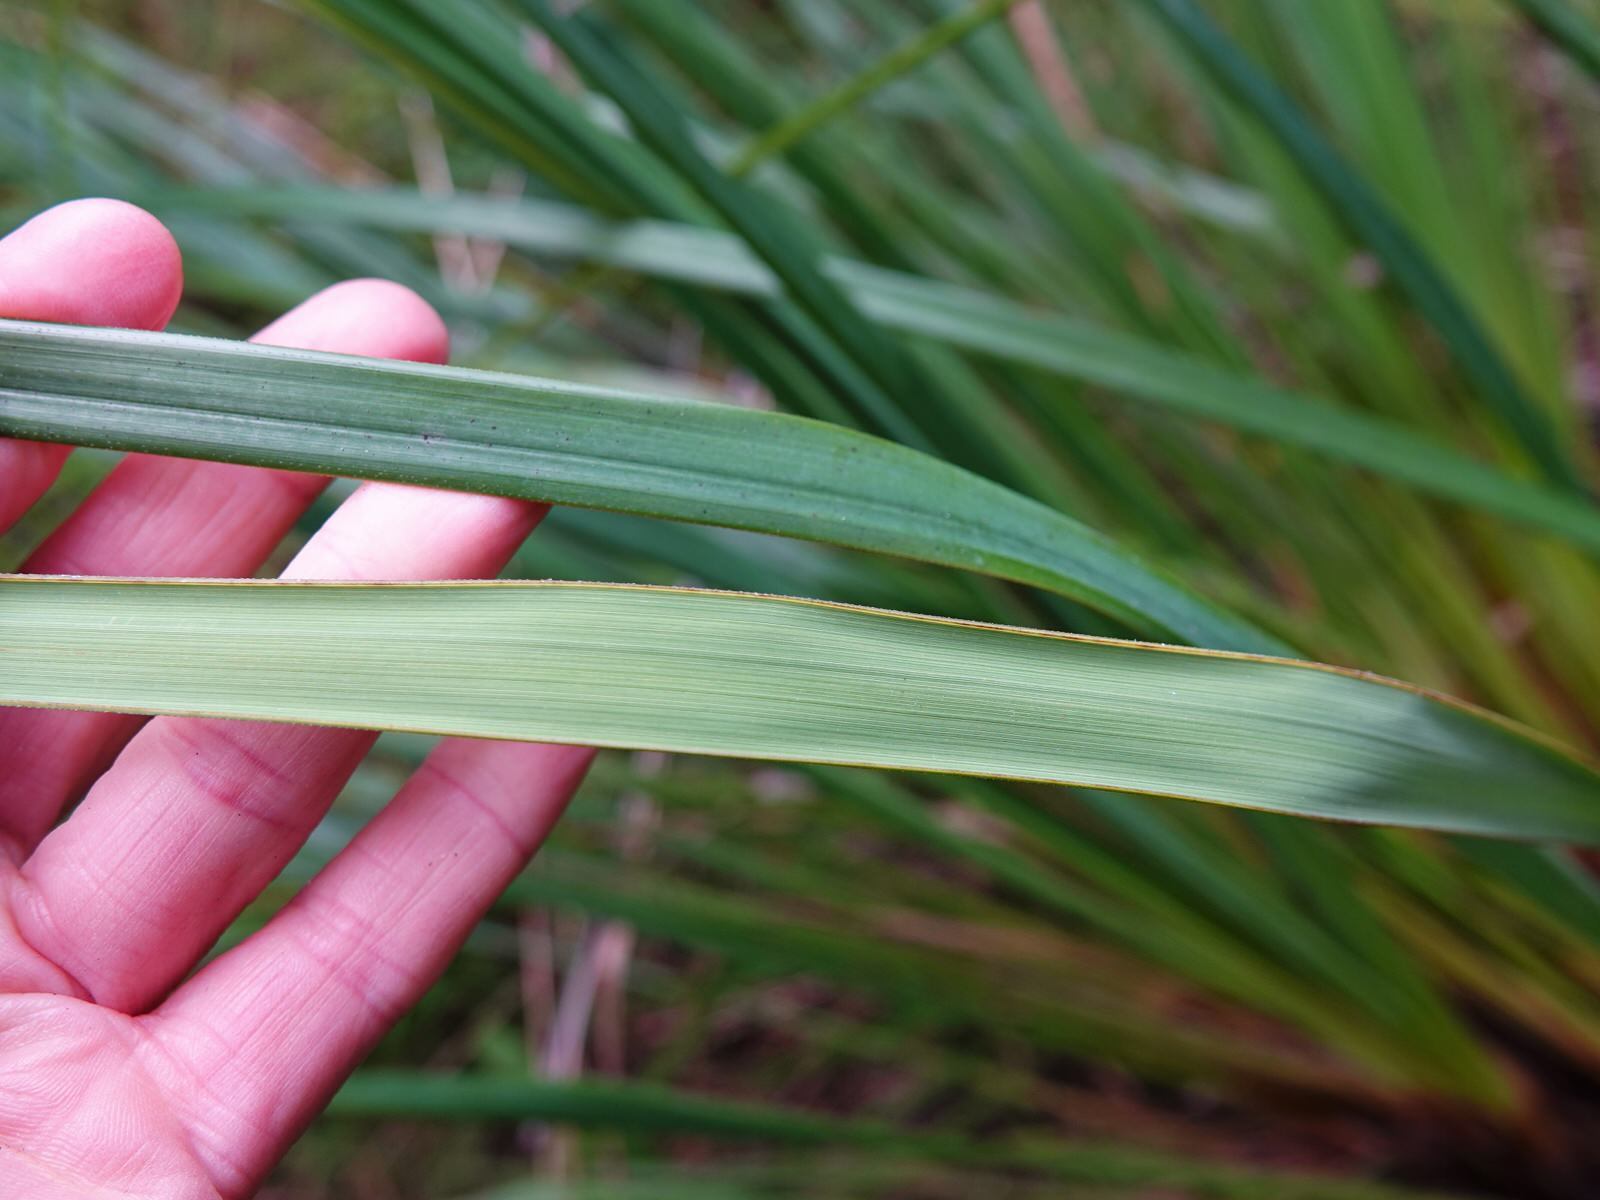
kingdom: Plantae
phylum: Tracheophyta
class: Liliopsida
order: Poales
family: Cyperaceae
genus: Gahnia
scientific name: Gahnia setifolia
